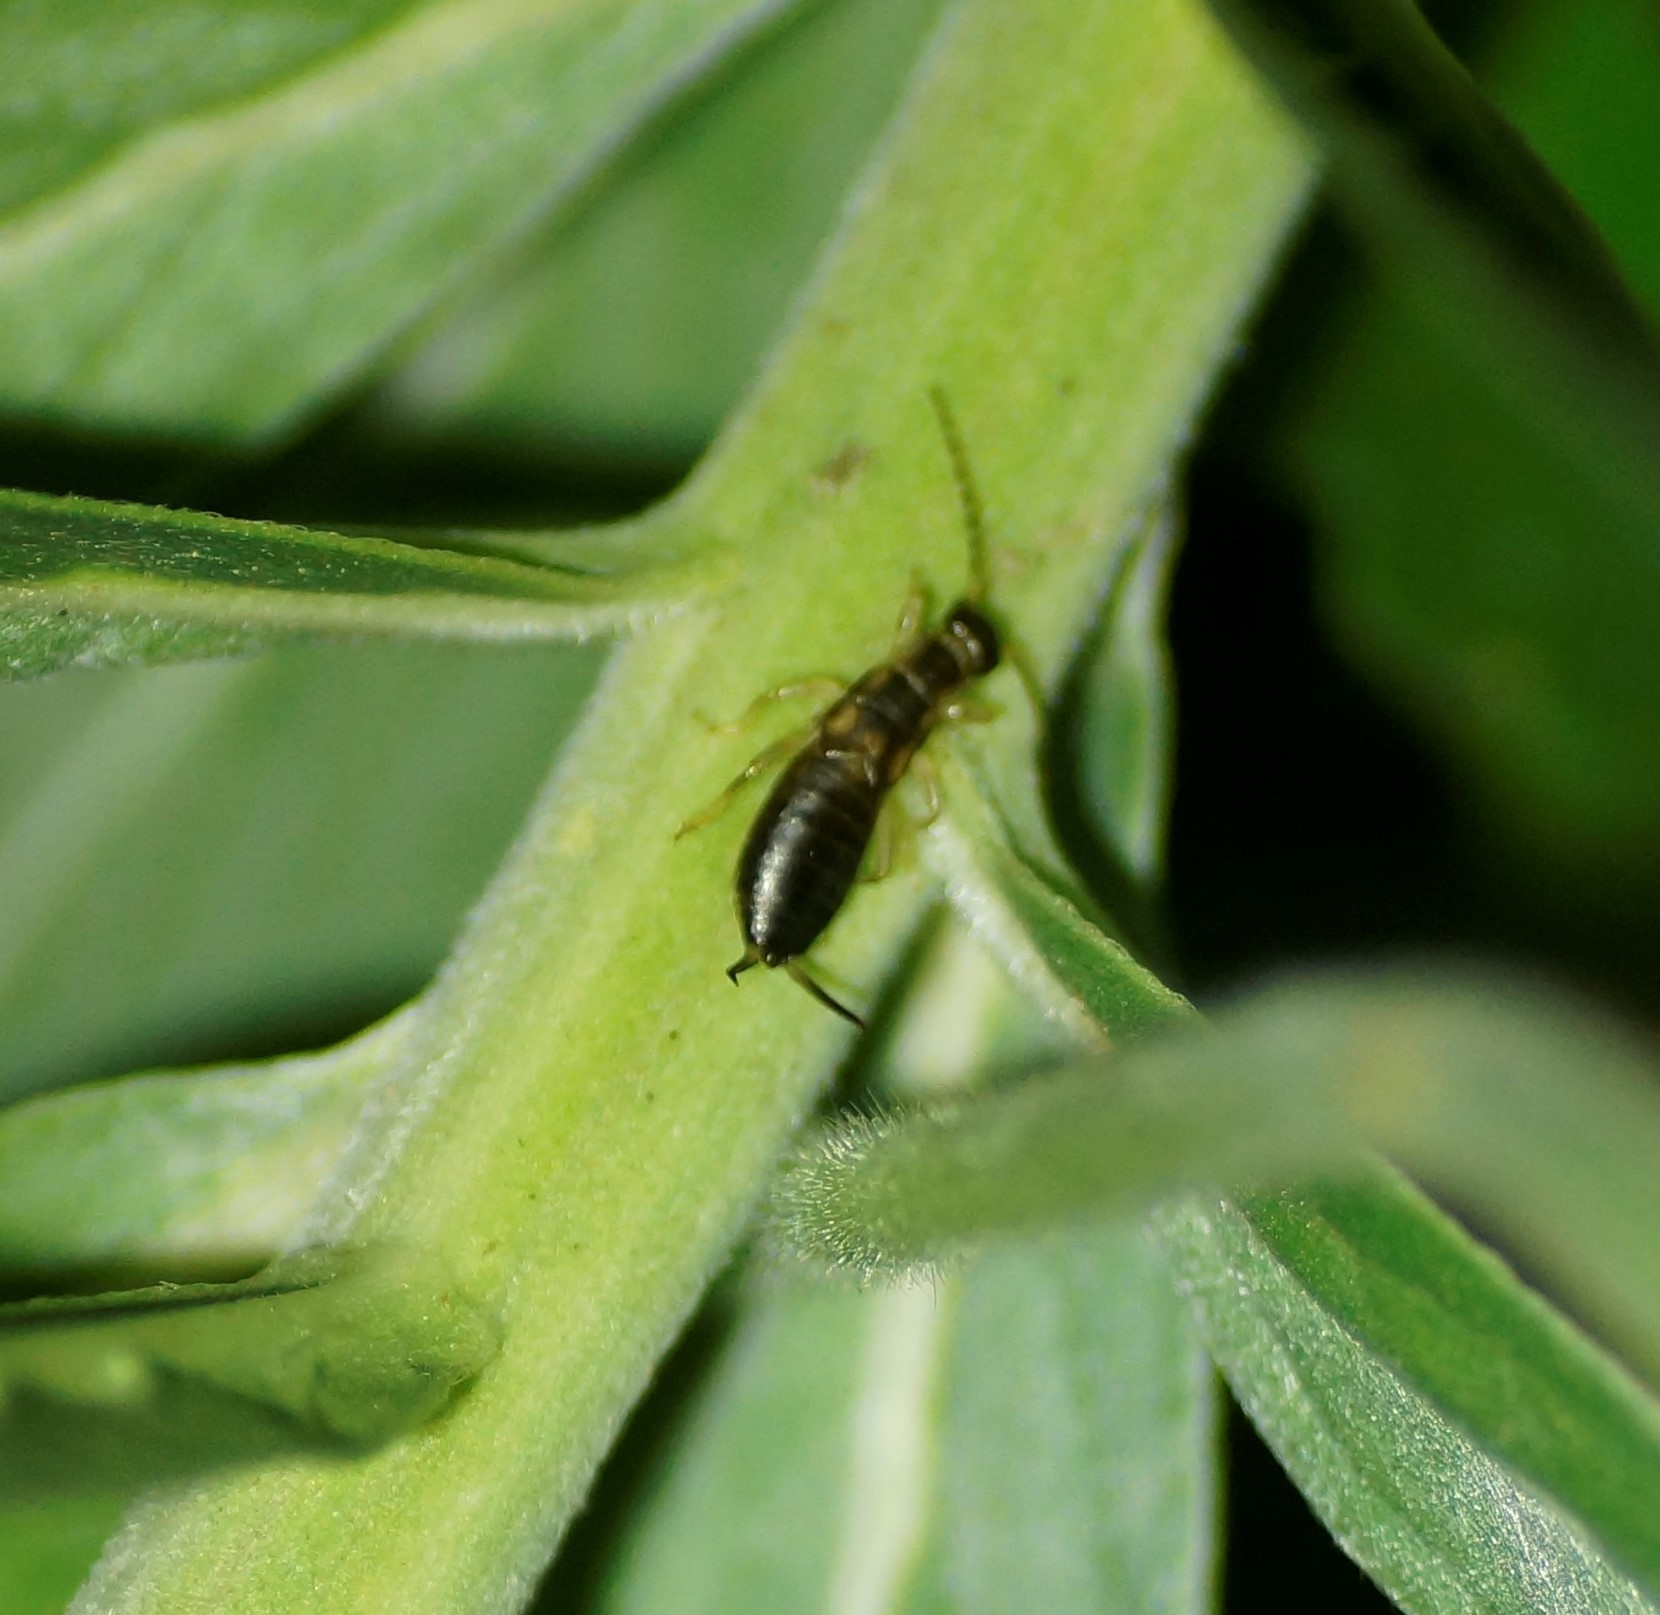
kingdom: Animalia
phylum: Arthropoda
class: Insecta
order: Dermaptera
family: Forficulidae
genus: Forficula
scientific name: Forficula
